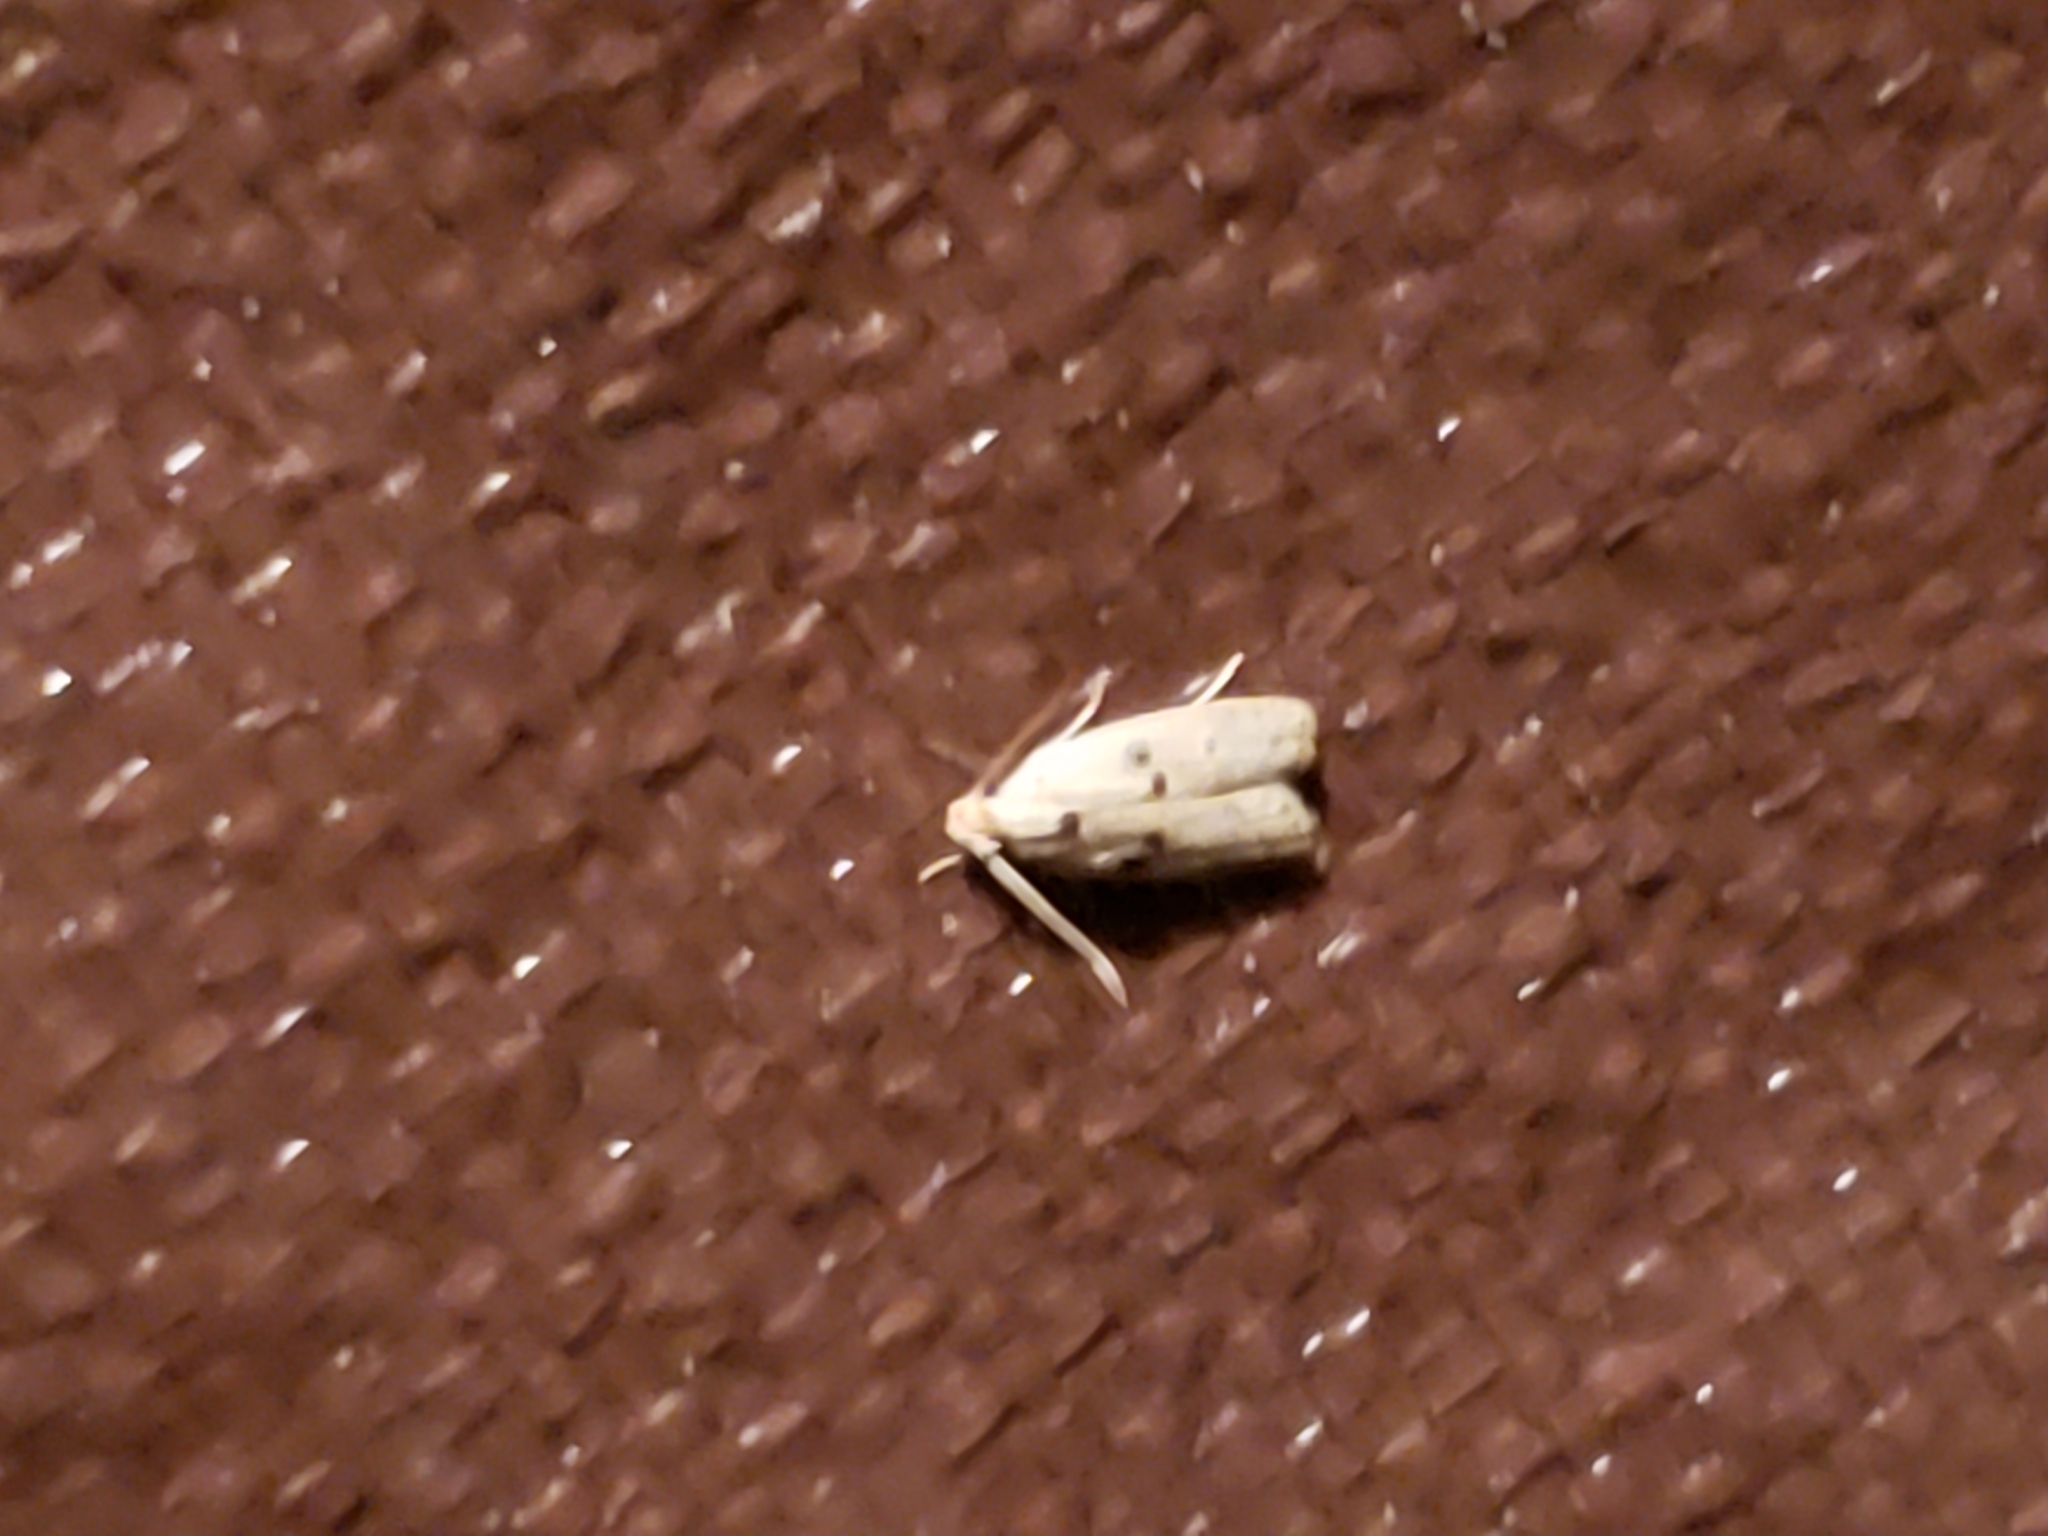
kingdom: Animalia
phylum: Arthropoda
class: Insecta
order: Lepidoptera
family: Peleopodidae
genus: Scythropiodes
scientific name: Scythropiodes issikii
